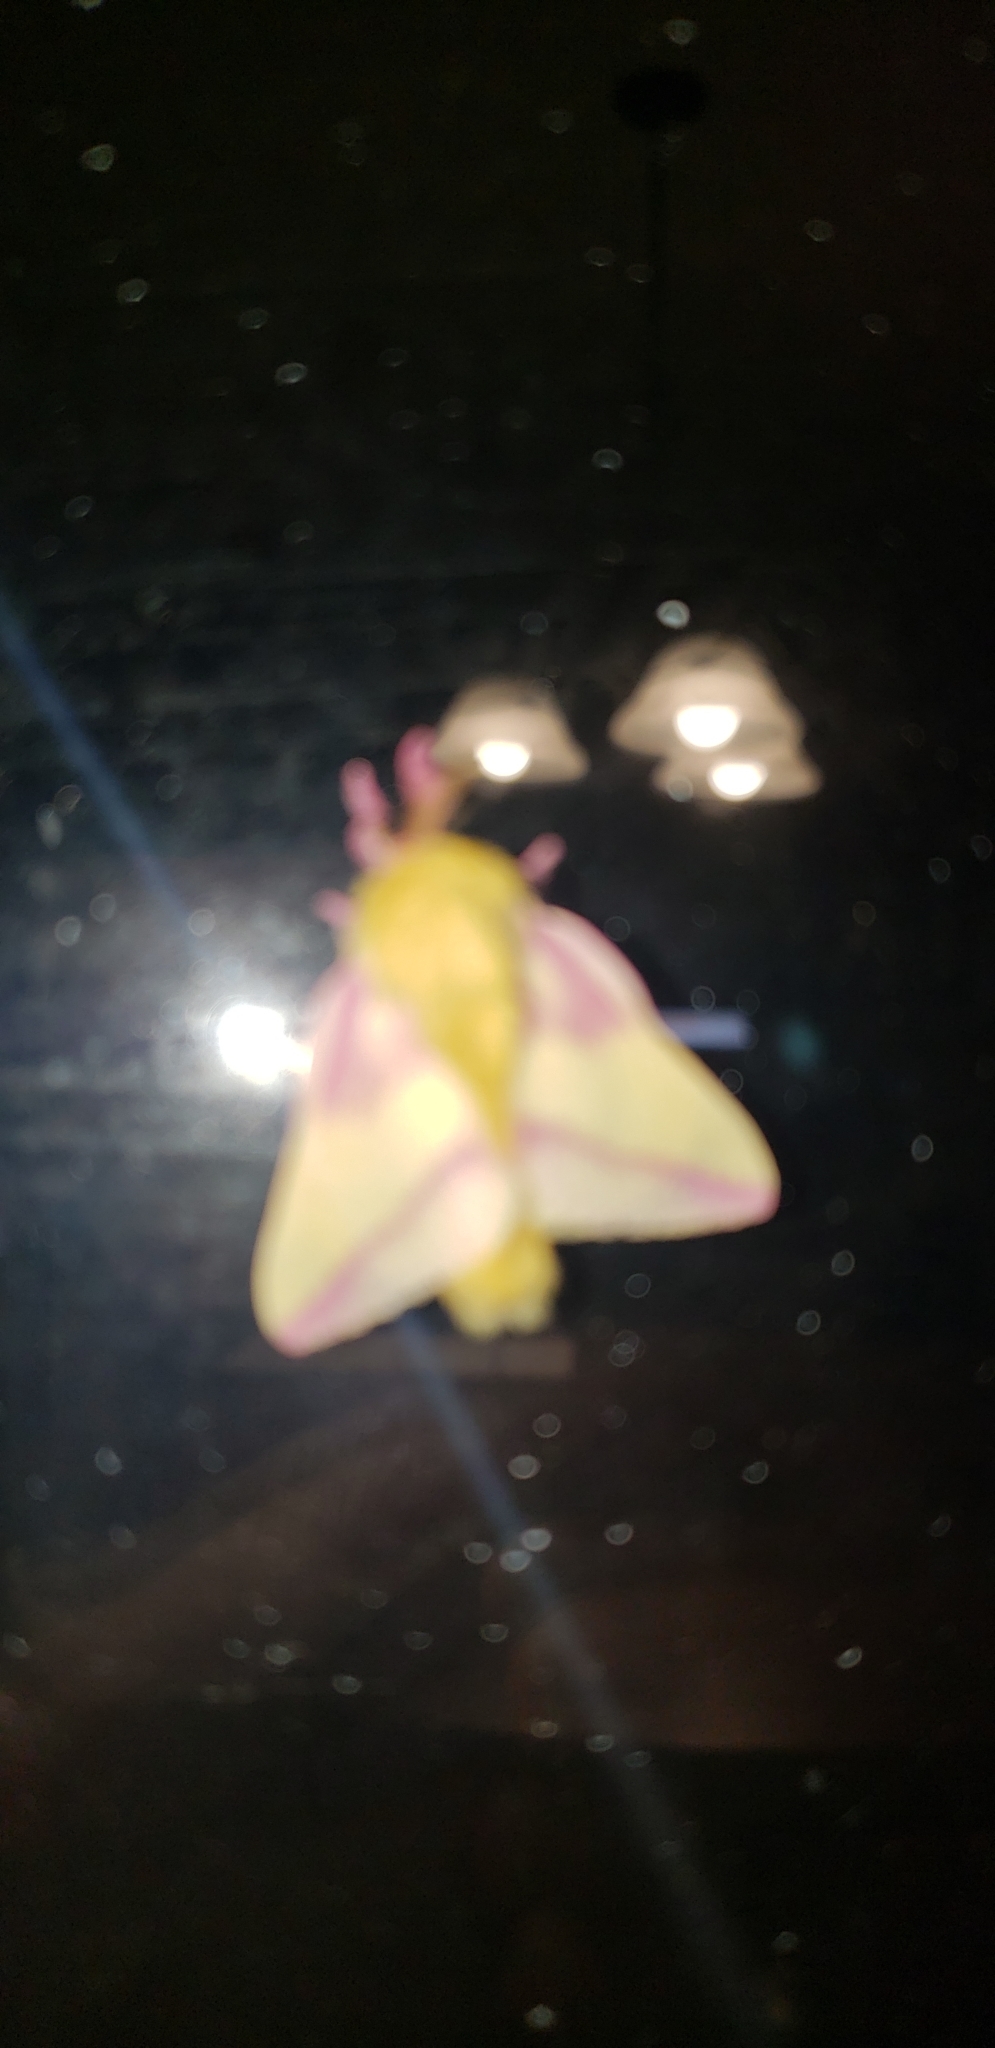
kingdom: Animalia
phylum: Arthropoda
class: Insecta
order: Lepidoptera
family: Saturniidae
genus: Dryocampa
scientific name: Dryocampa rubicunda
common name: Rosy maple moth
